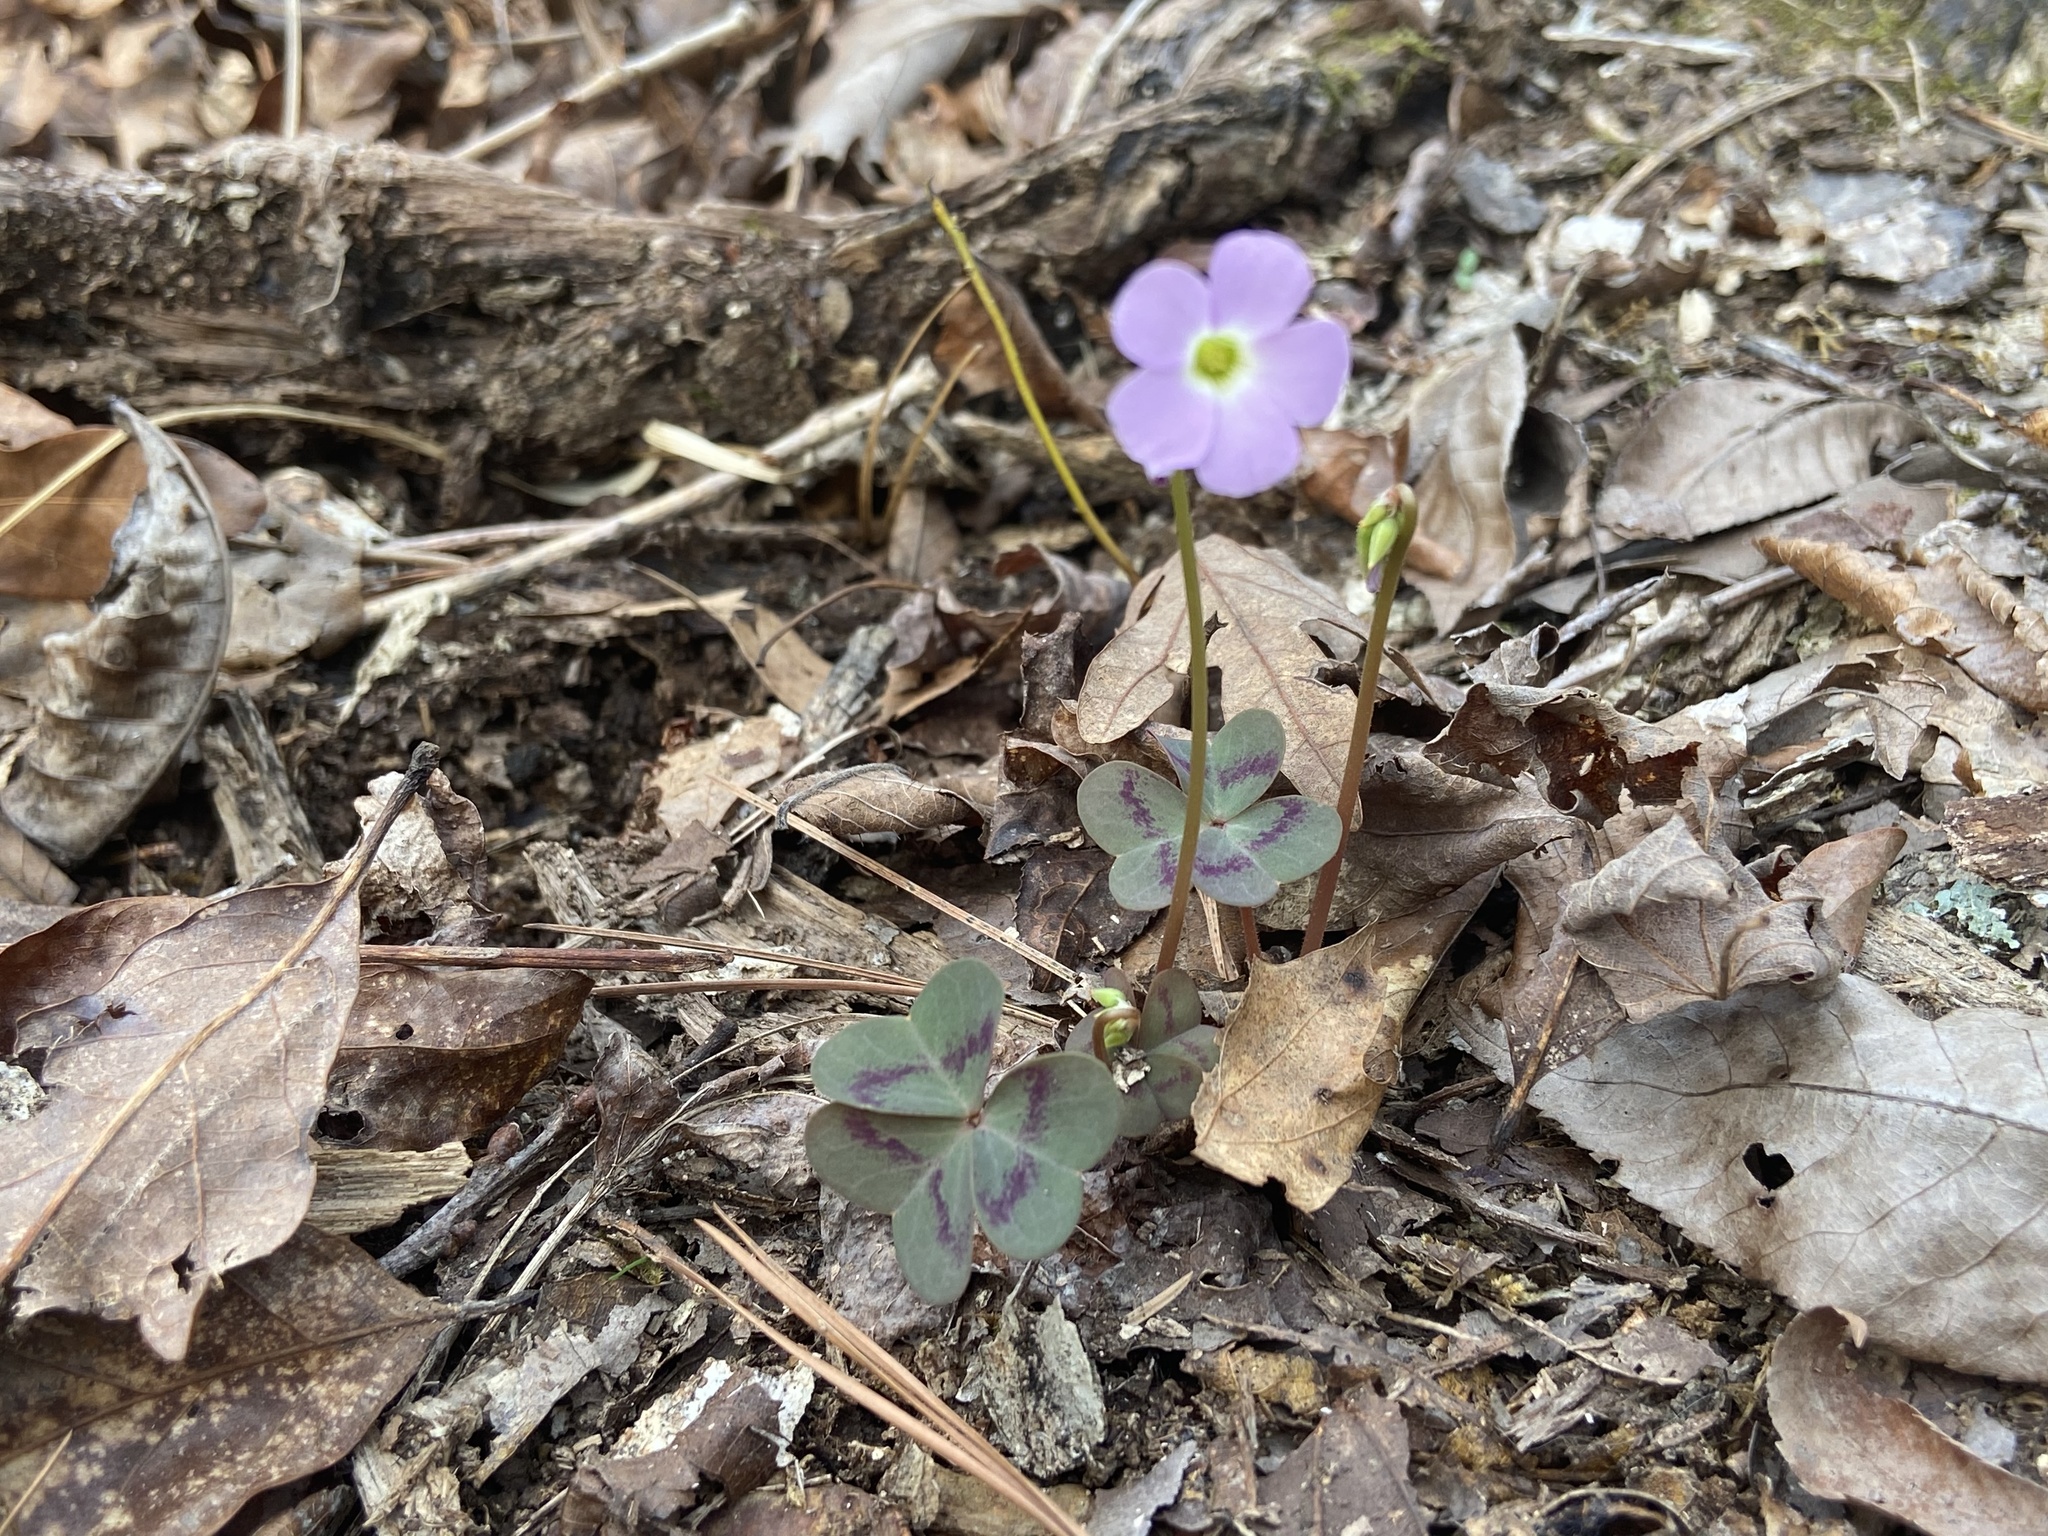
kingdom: Plantae
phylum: Tracheophyta
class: Magnoliopsida
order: Oxalidales
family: Oxalidaceae
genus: Oxalis
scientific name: Oxalis violacea
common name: Violet wood-sorrel
